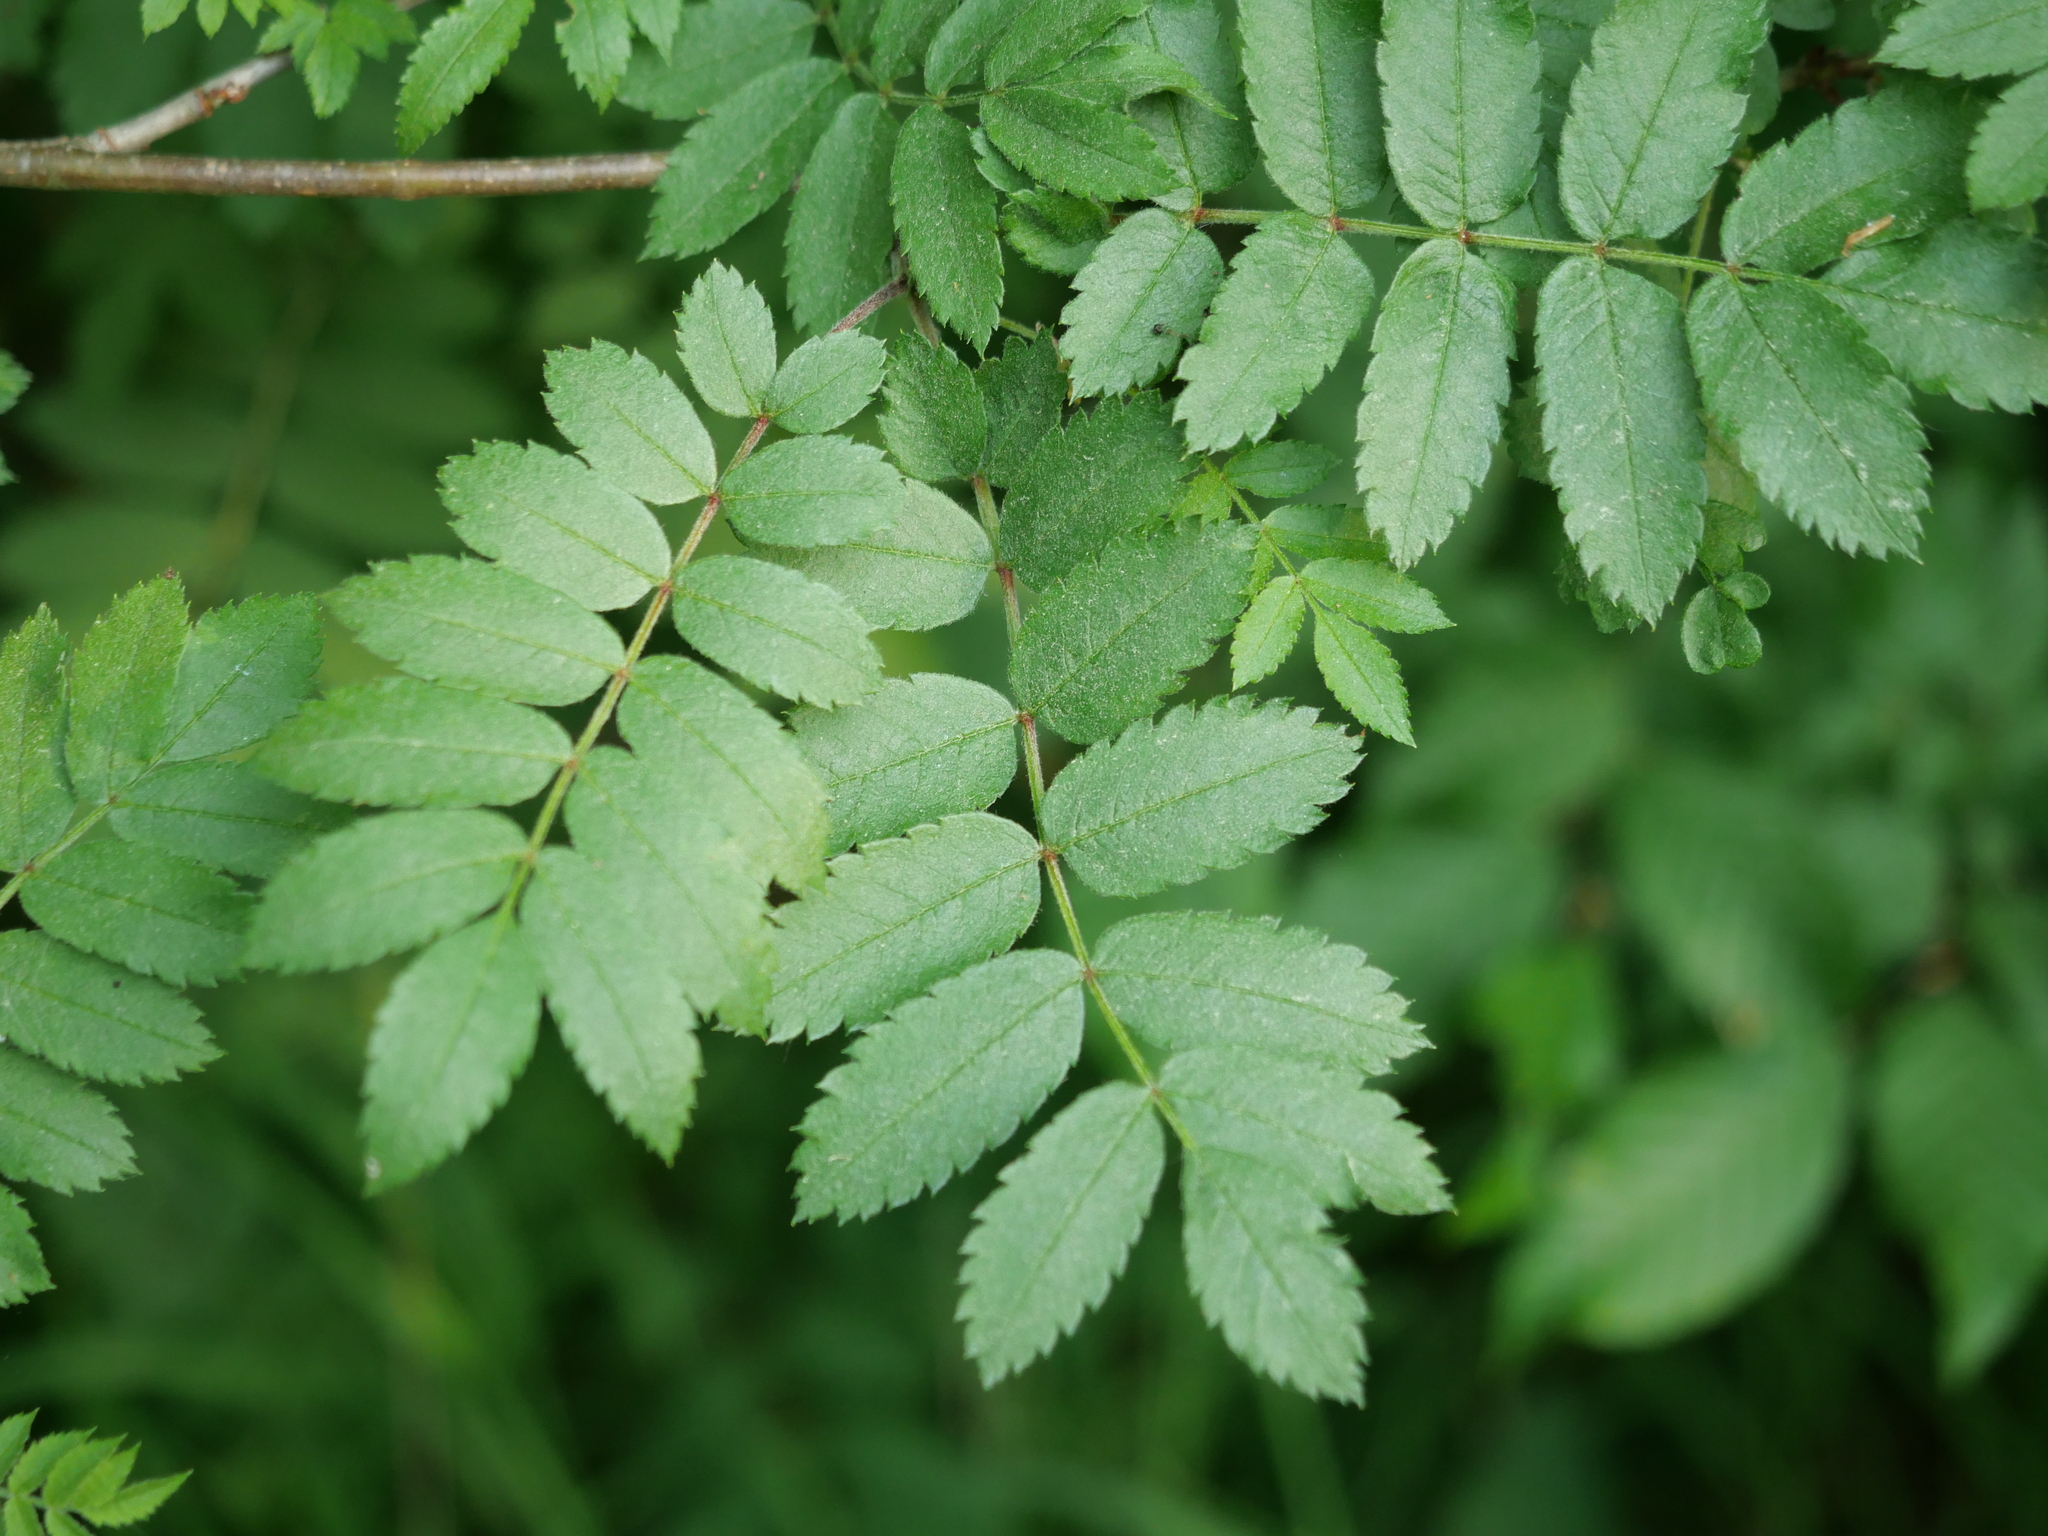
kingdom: Plantae
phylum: Tracheophyta
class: Magnoliopsida
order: Rosales
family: Rosaceae
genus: Sorbus
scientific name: Sorbus aucuparia
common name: Rowan
